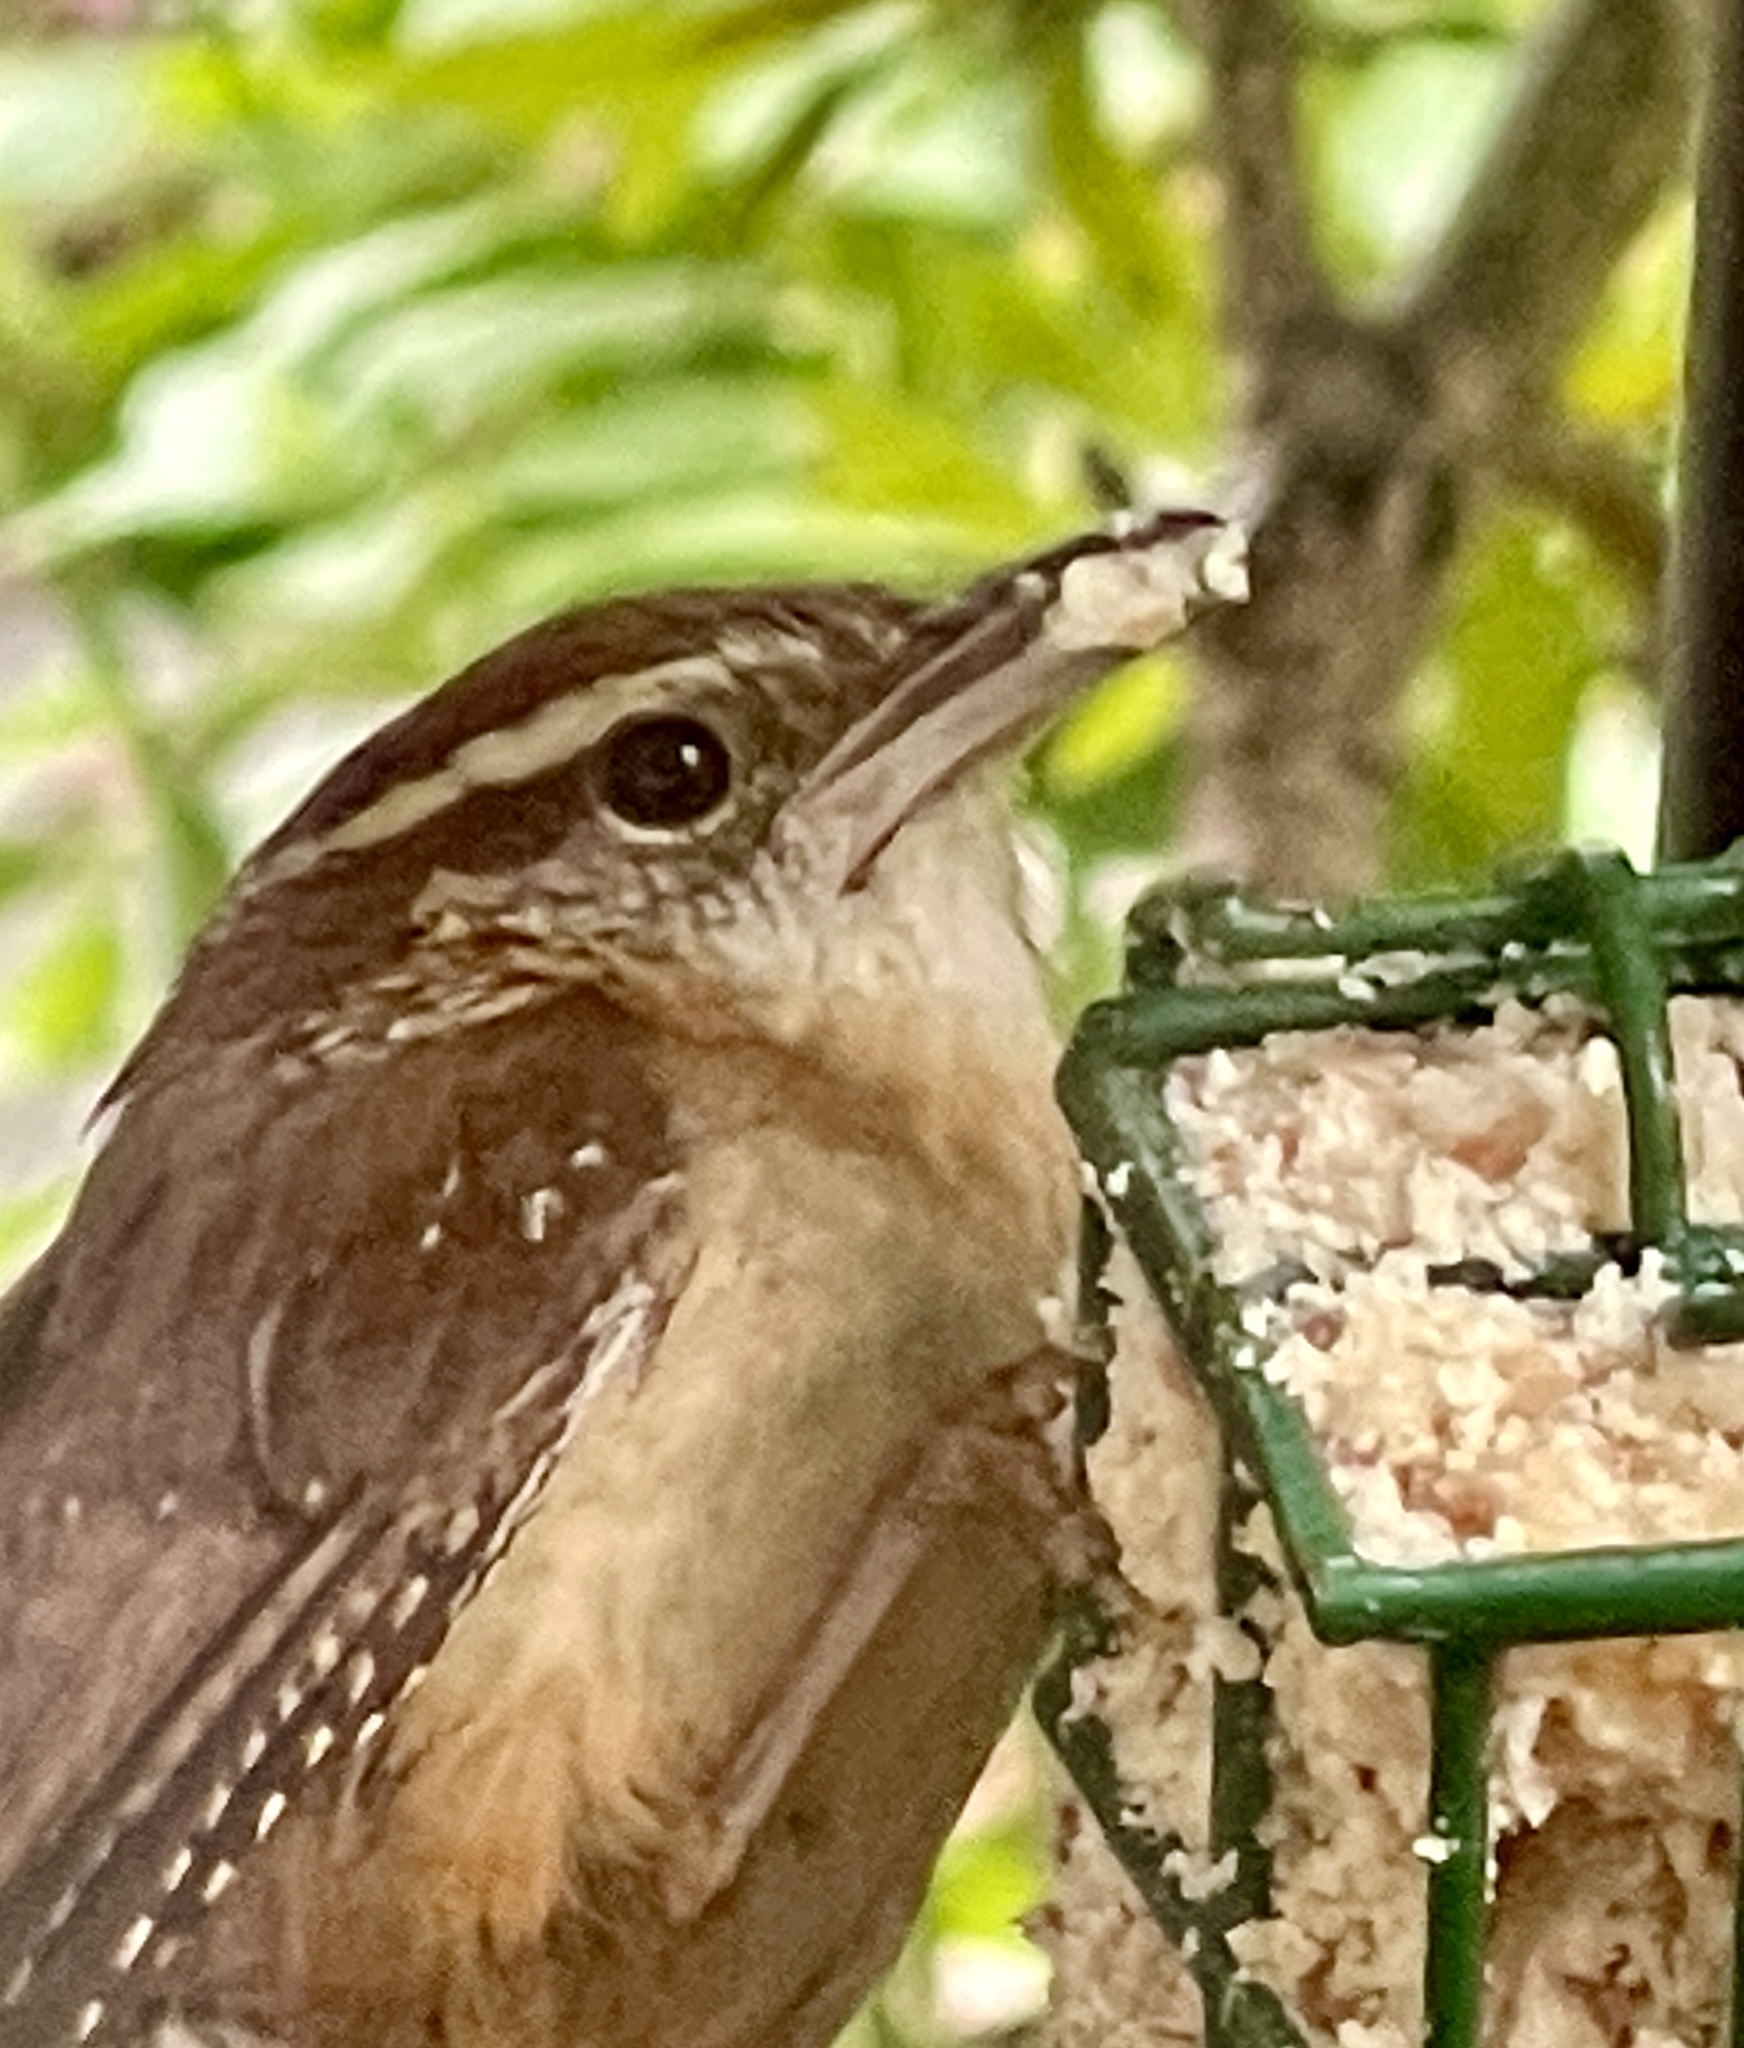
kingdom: Animalia
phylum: Chordata
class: Aves
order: Passeriformes
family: Troglodytidae
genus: Thryothorus
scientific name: Thryothorus ludovicianus
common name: Carolina wren
